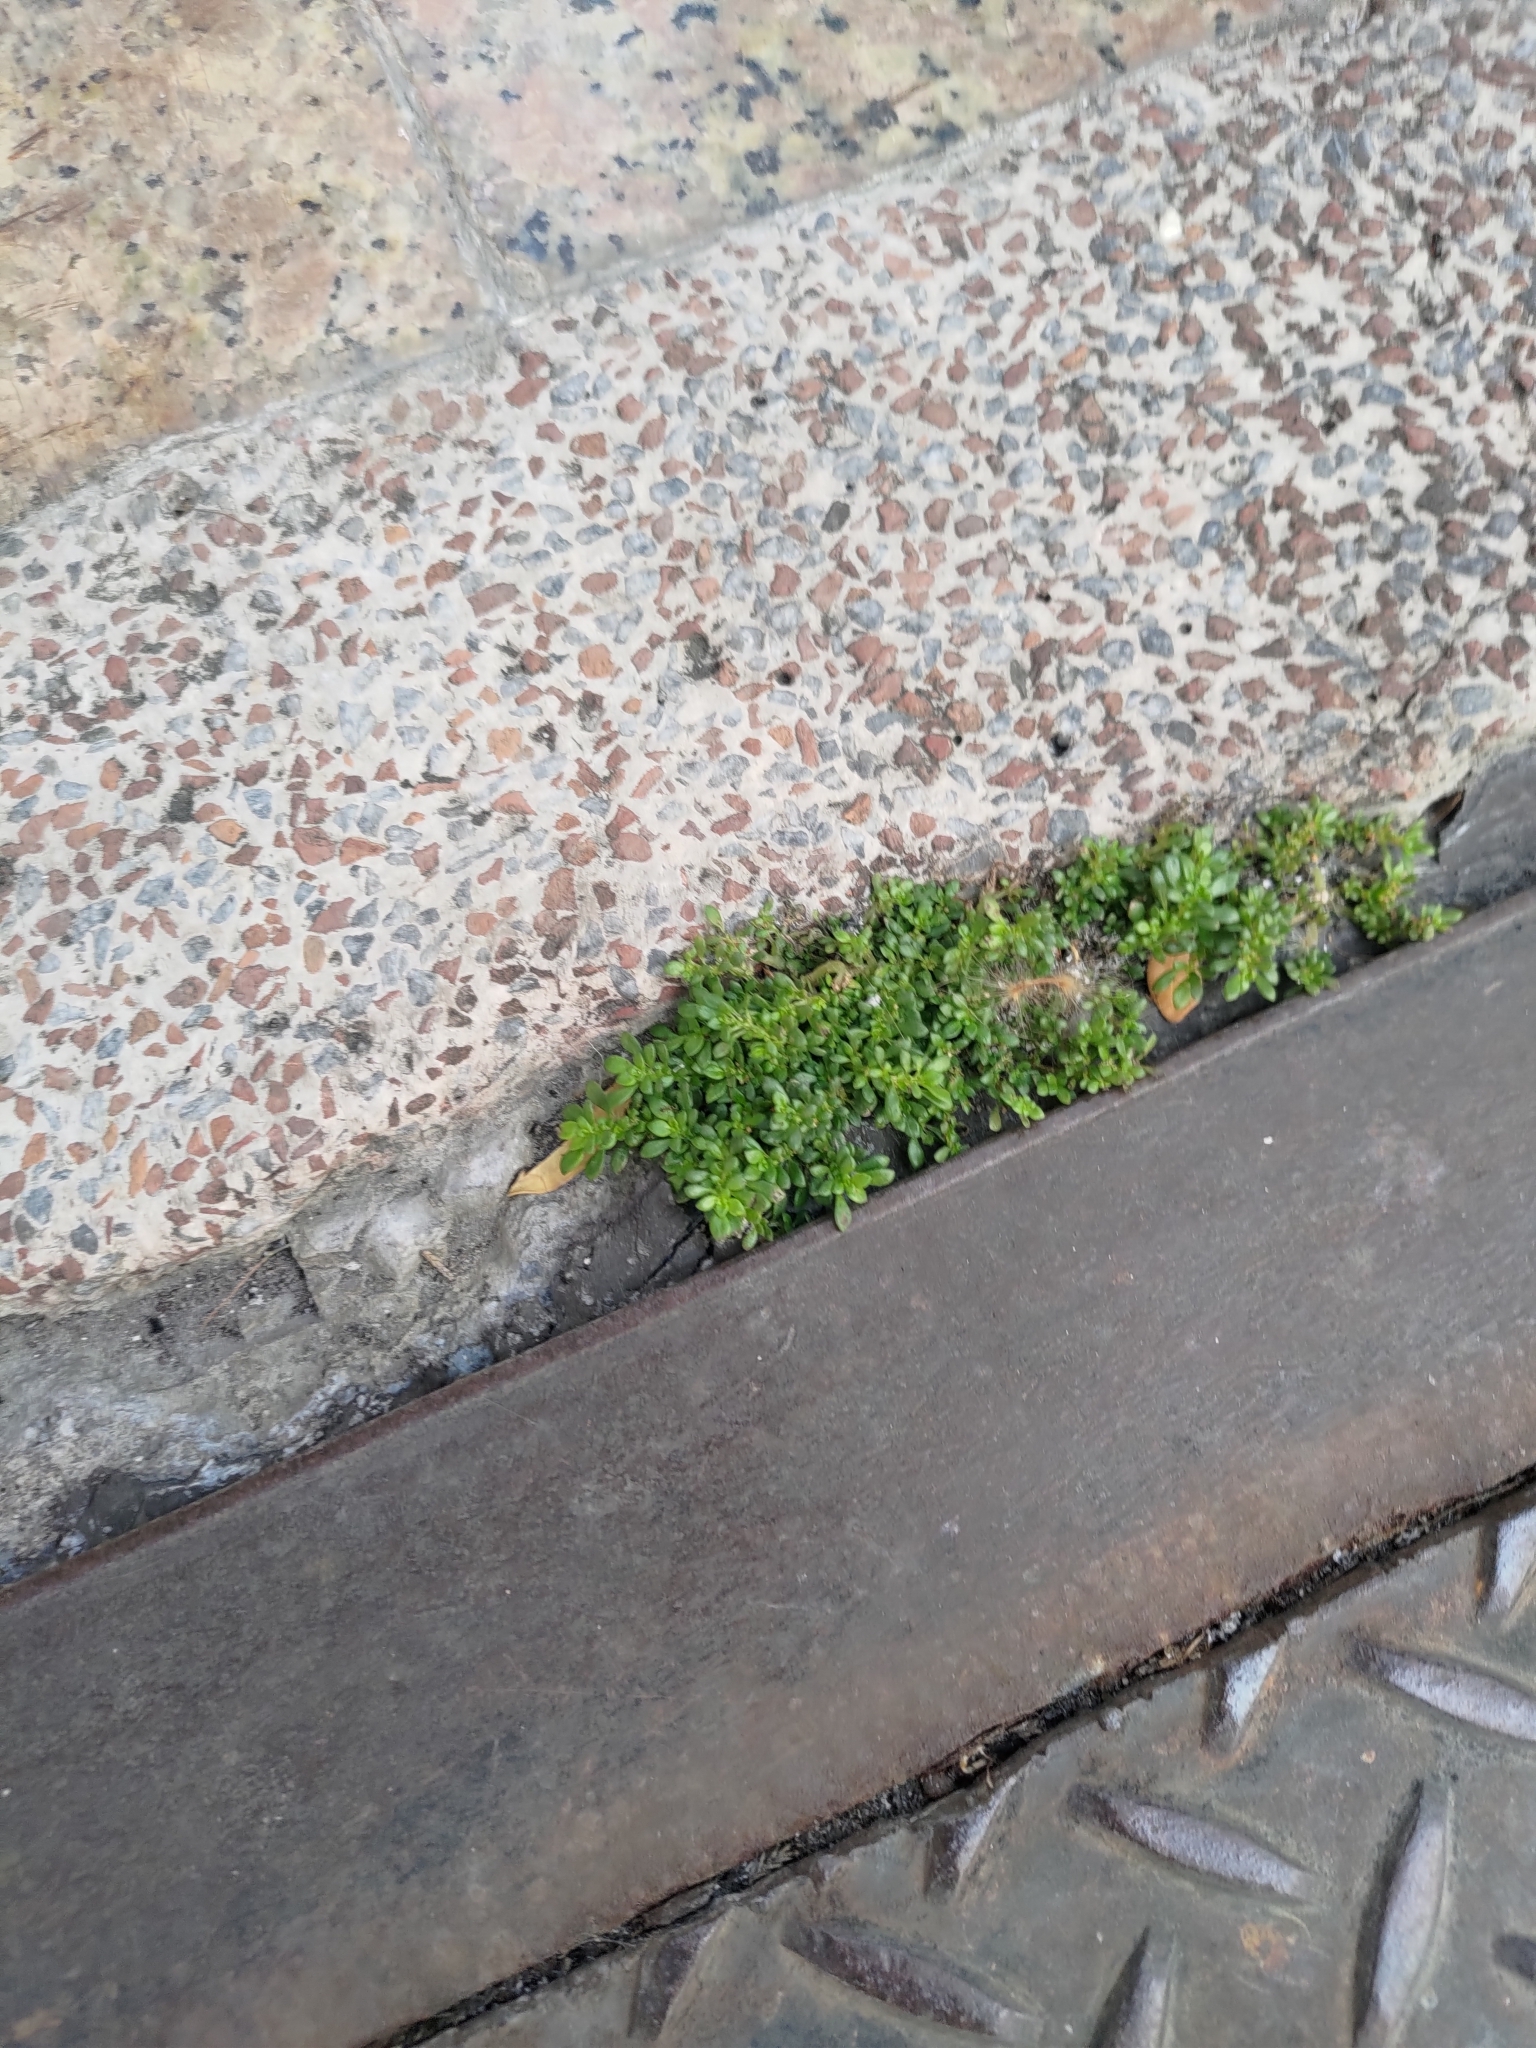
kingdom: Plantae
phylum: Tracheophyta
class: Magnoliopsida
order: Rosales
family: Urticaceae
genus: Pilea
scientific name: Pilea microphylla
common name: Artillery-plant
